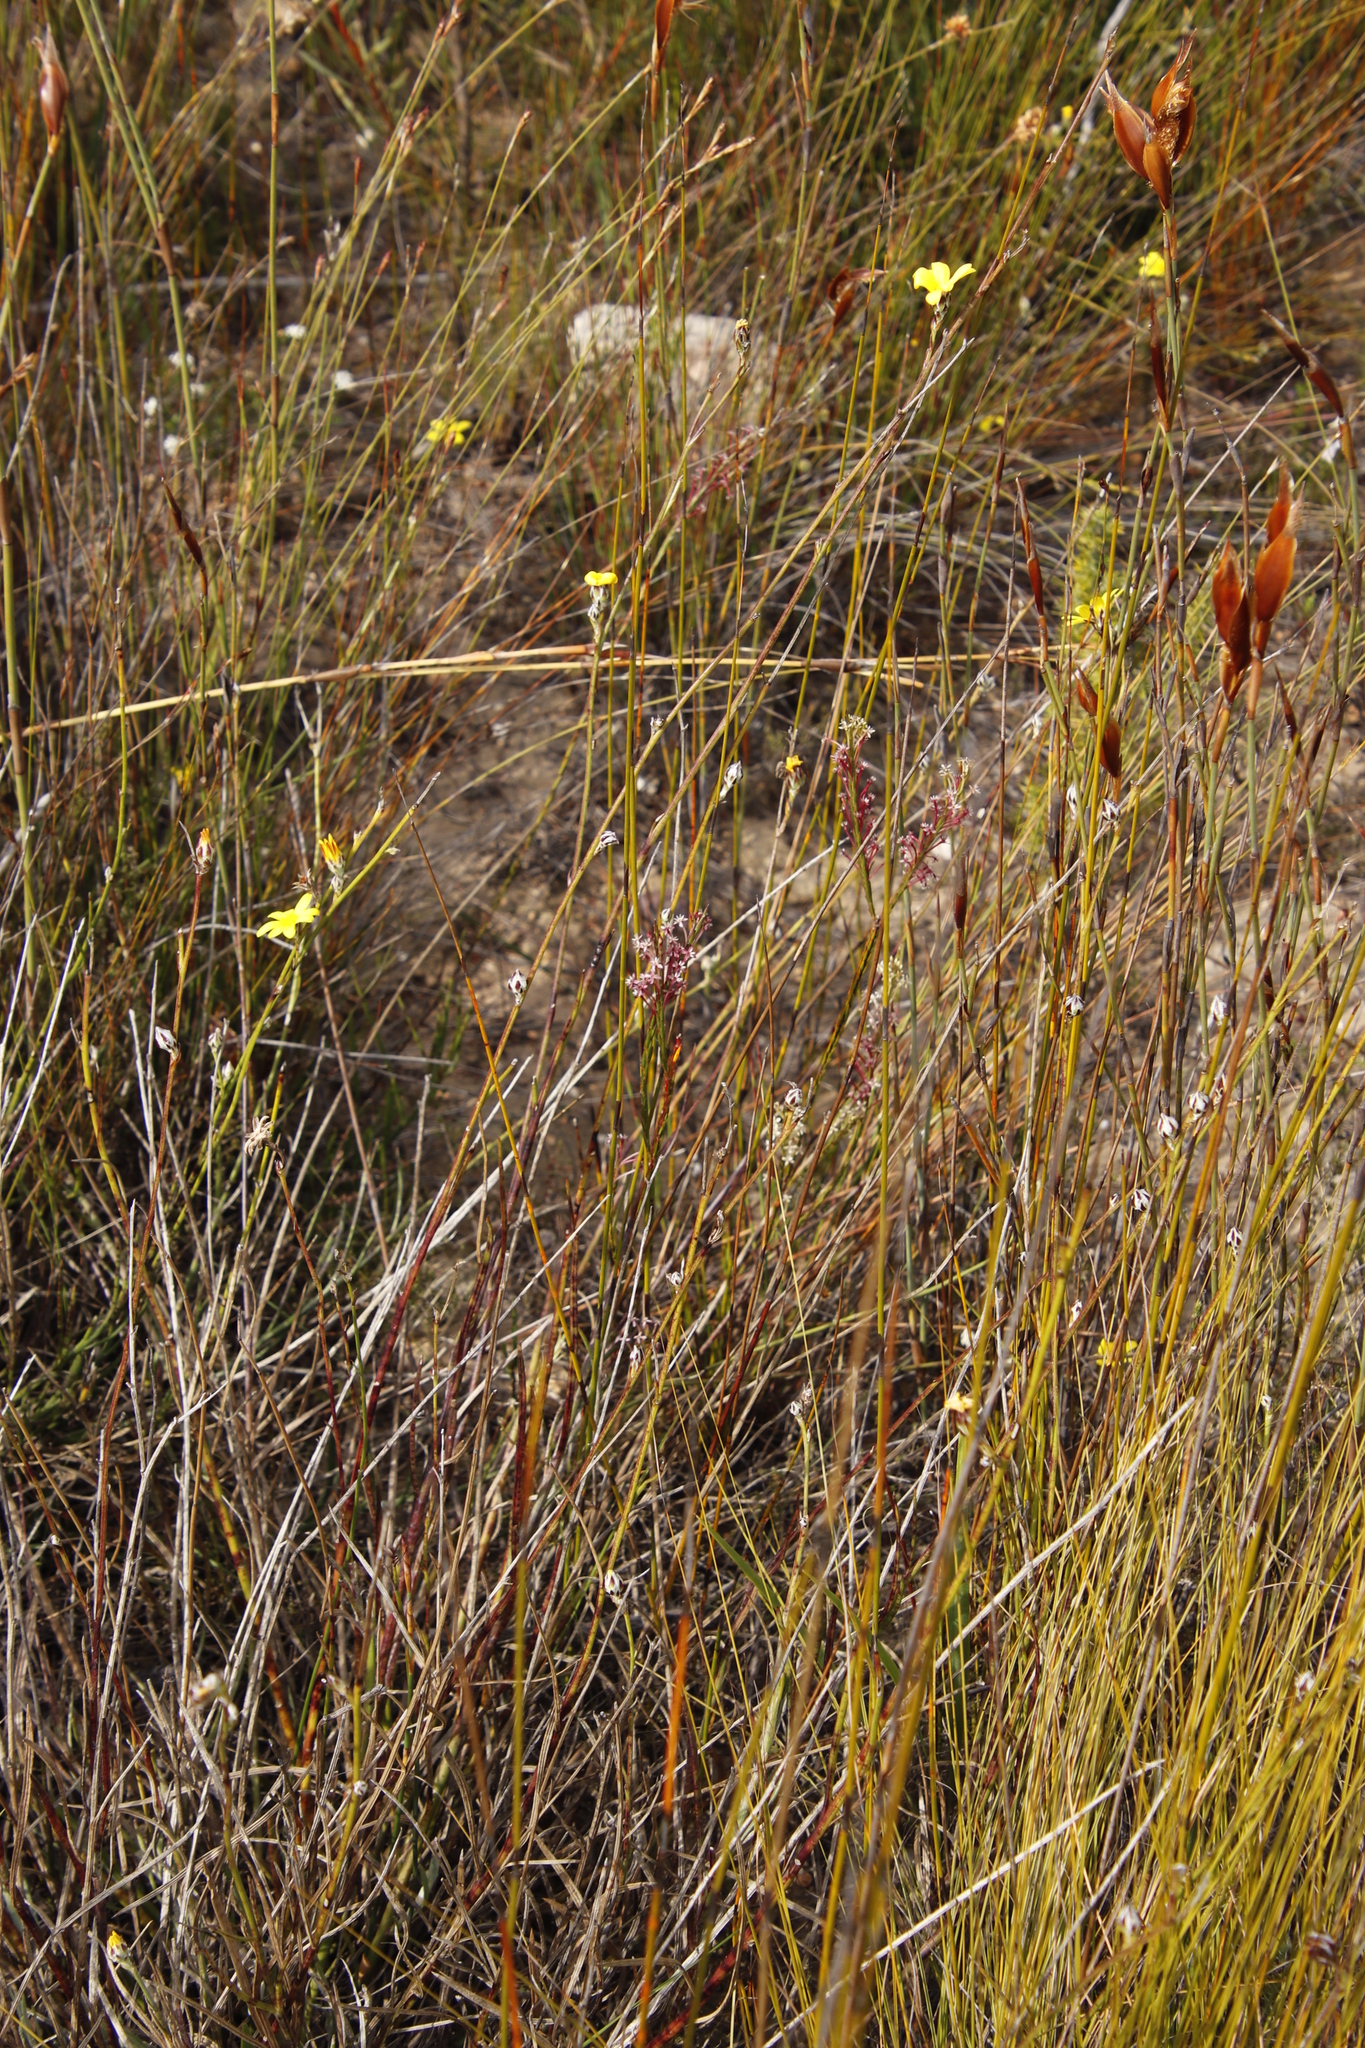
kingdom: Plantae
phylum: Tracheophyta
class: Magnoliopsida
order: Asterales
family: Asteraceae
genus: Pteronia
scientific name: Pteronia camphorata
